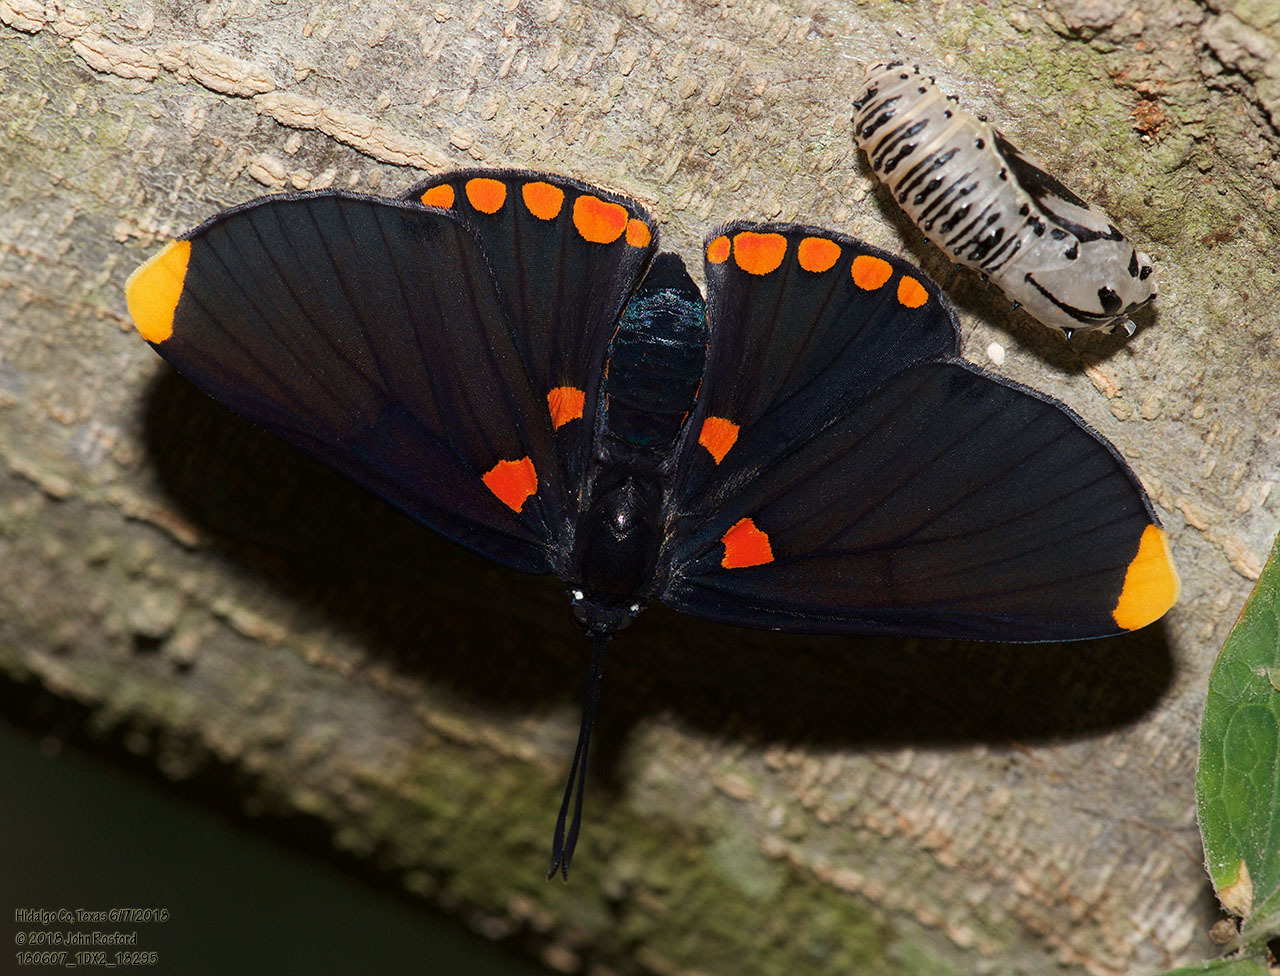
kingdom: Animalia
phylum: Arthropoda
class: Insecta
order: Lepidoptera
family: Lycaenidae
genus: Melanis
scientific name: Melanis pixe
